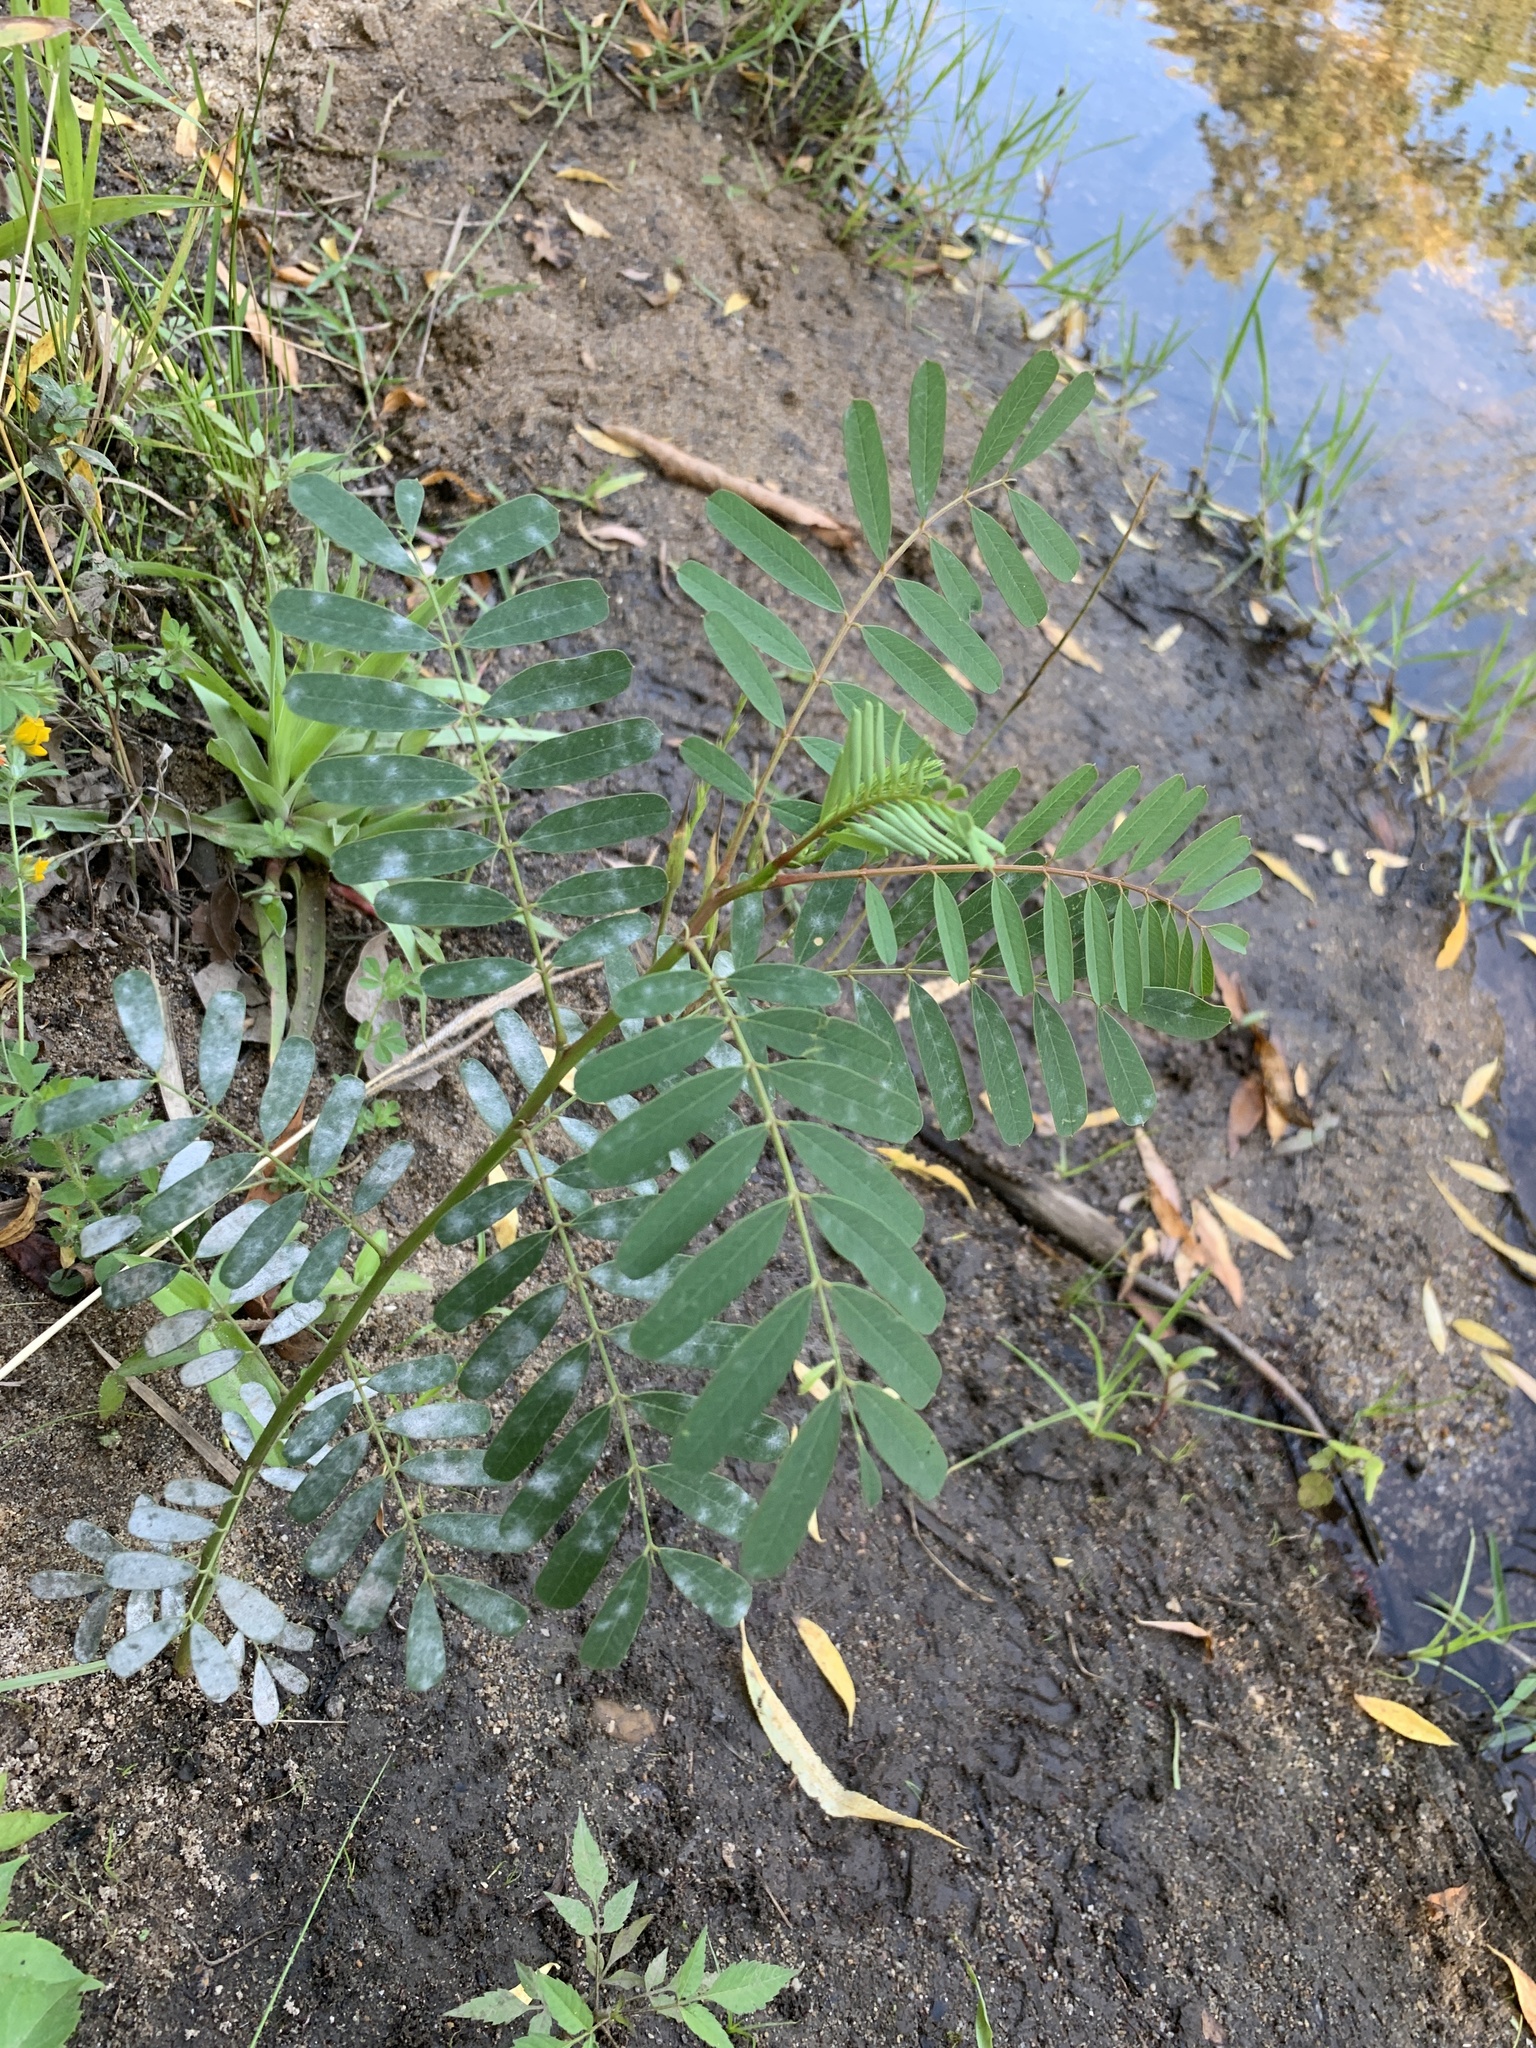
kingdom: Plantae
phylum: Tracheophyta
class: Magnoliopsida
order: Fabales
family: Fabaceae
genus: Sesbania
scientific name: Sesbania punicea
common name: Rattlebox
